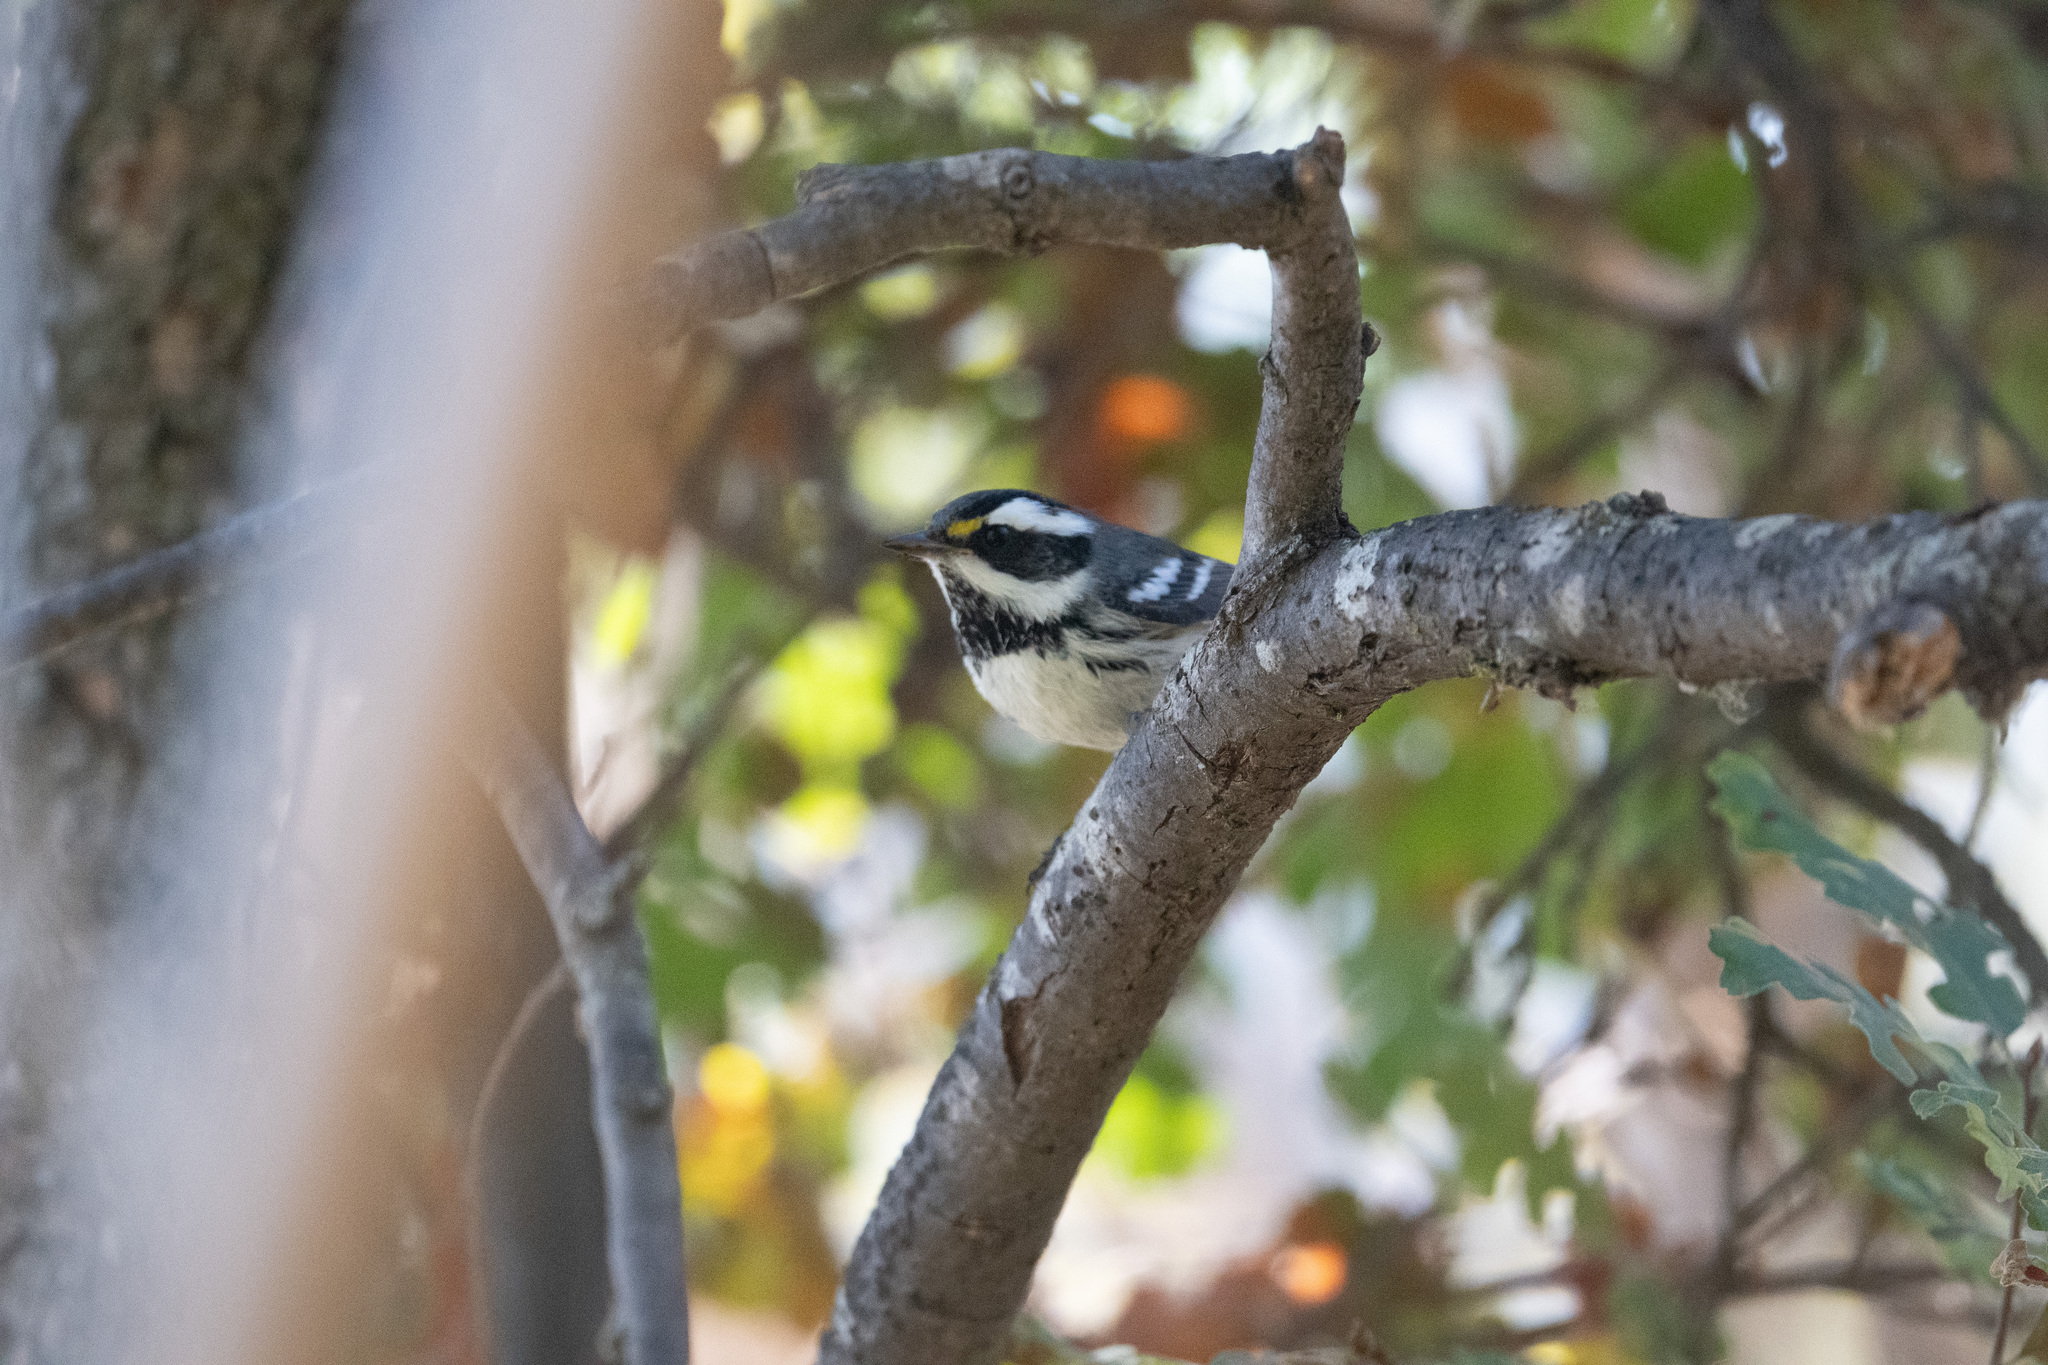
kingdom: Animalia
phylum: Chordata
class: Aves
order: Passeriformes
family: Parulidae
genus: Setophaga
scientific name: Setophaga nigrescens
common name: Black-throated gray warbler
